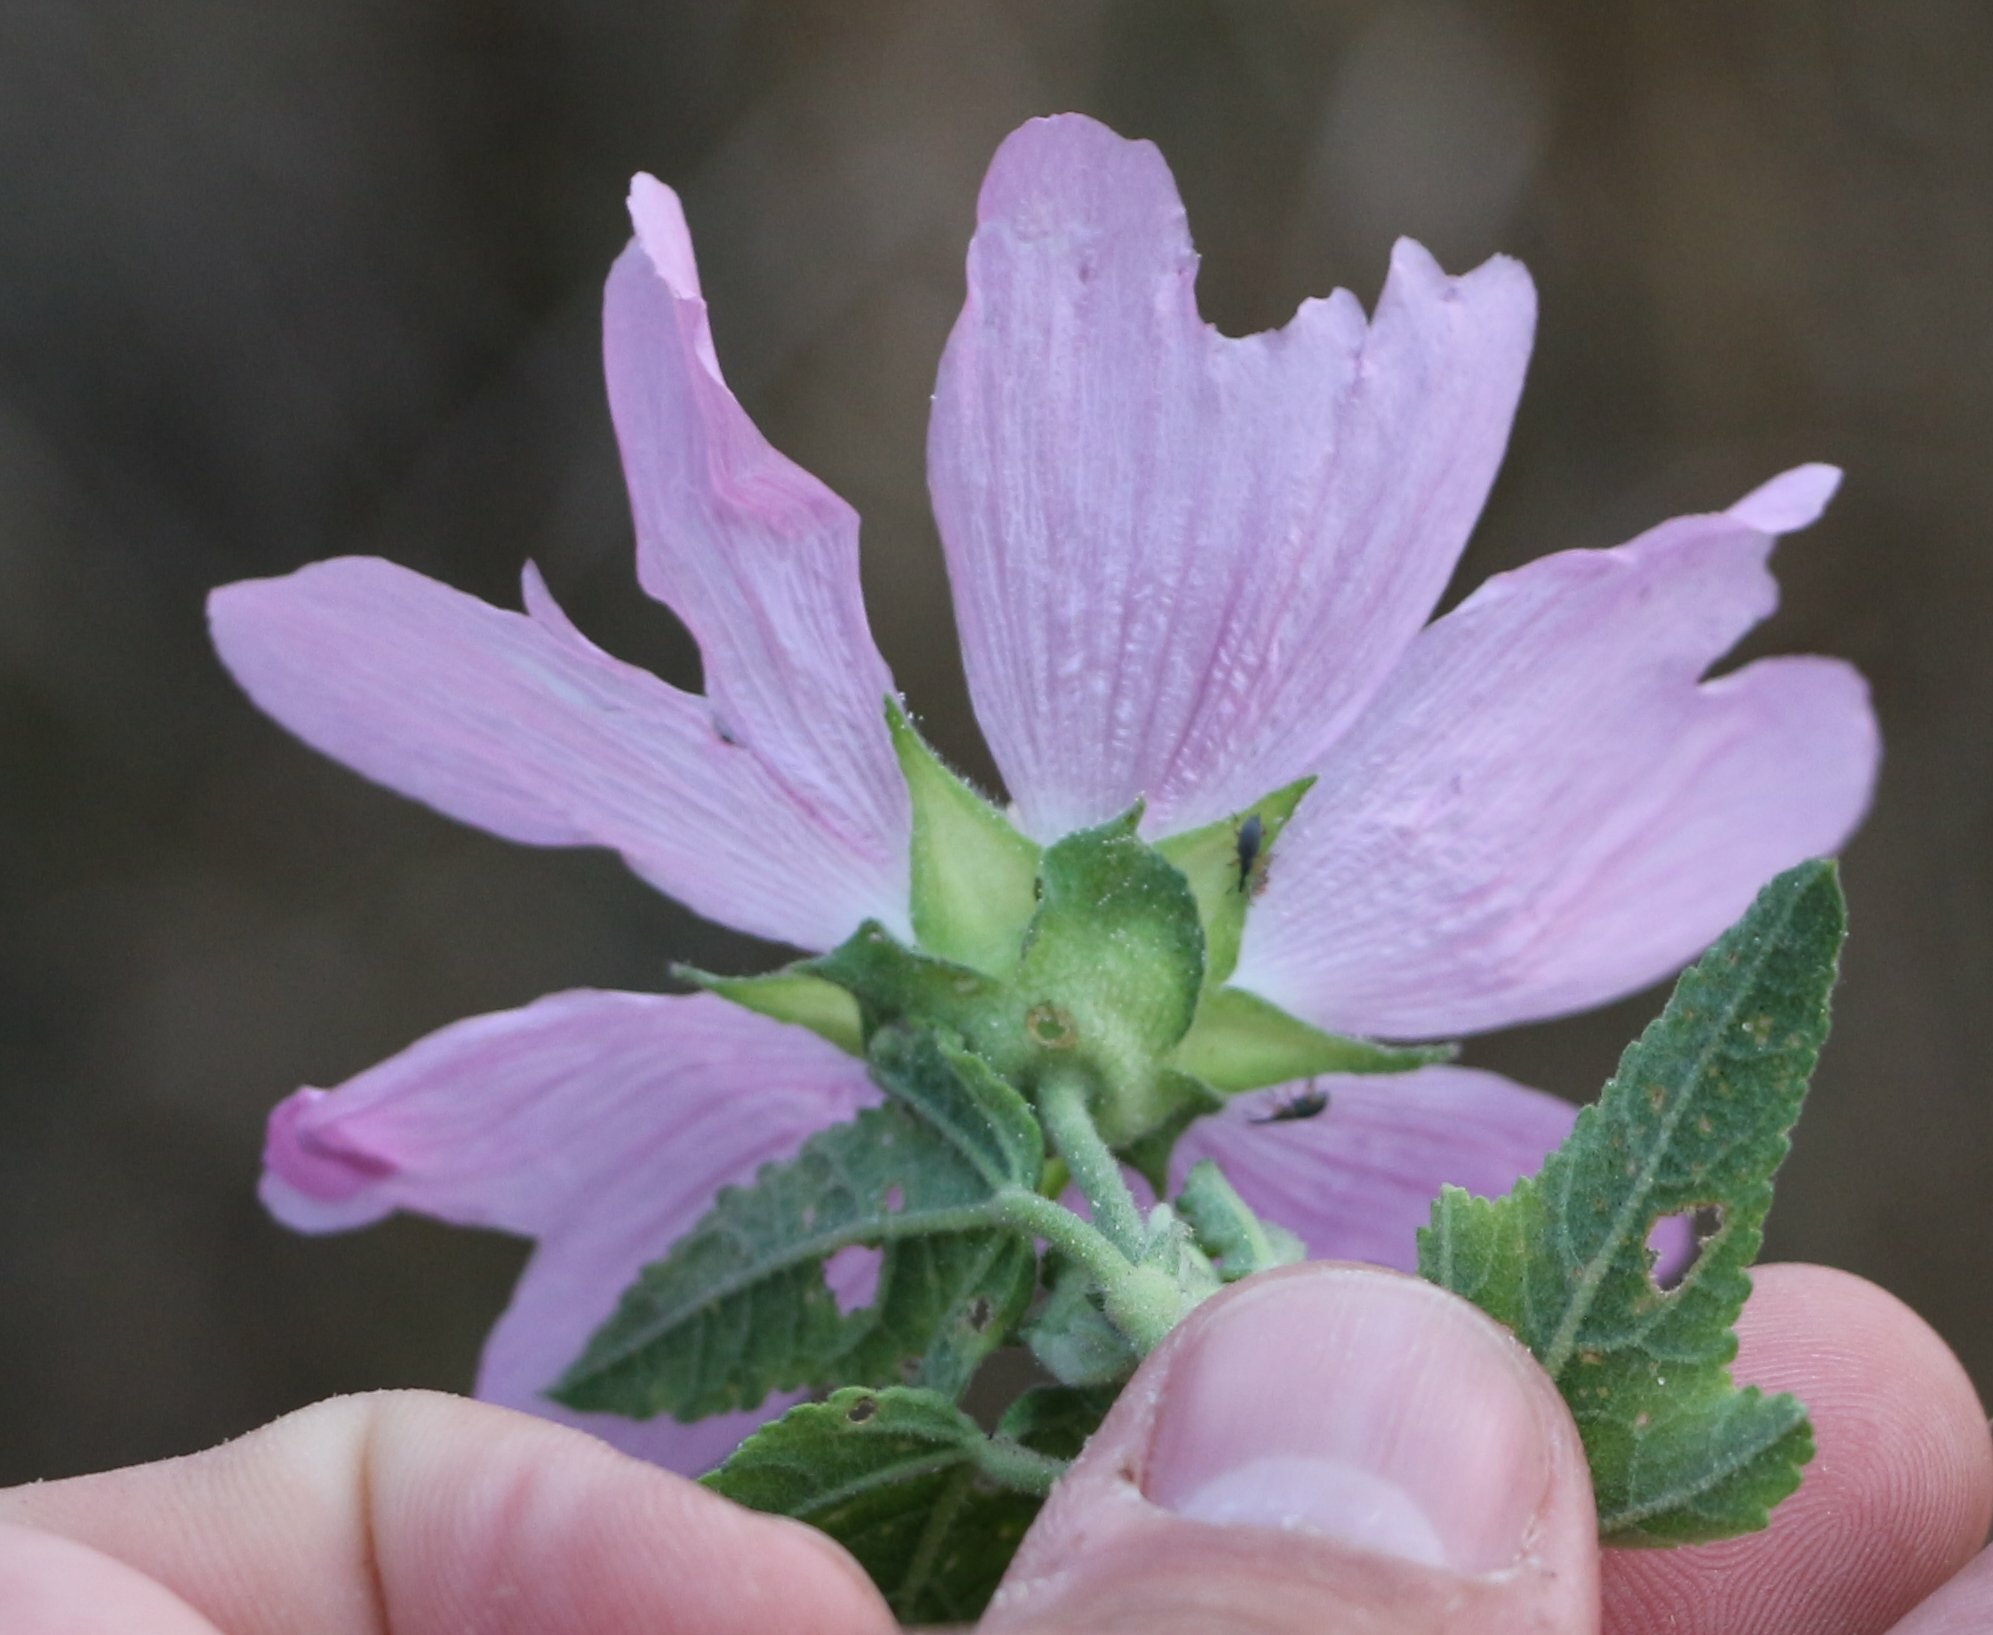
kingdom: Plantae
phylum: Tracheophyta
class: Magnoliopsida
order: Malvales
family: Malvaceae
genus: Malva
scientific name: Malva thuringiaca
